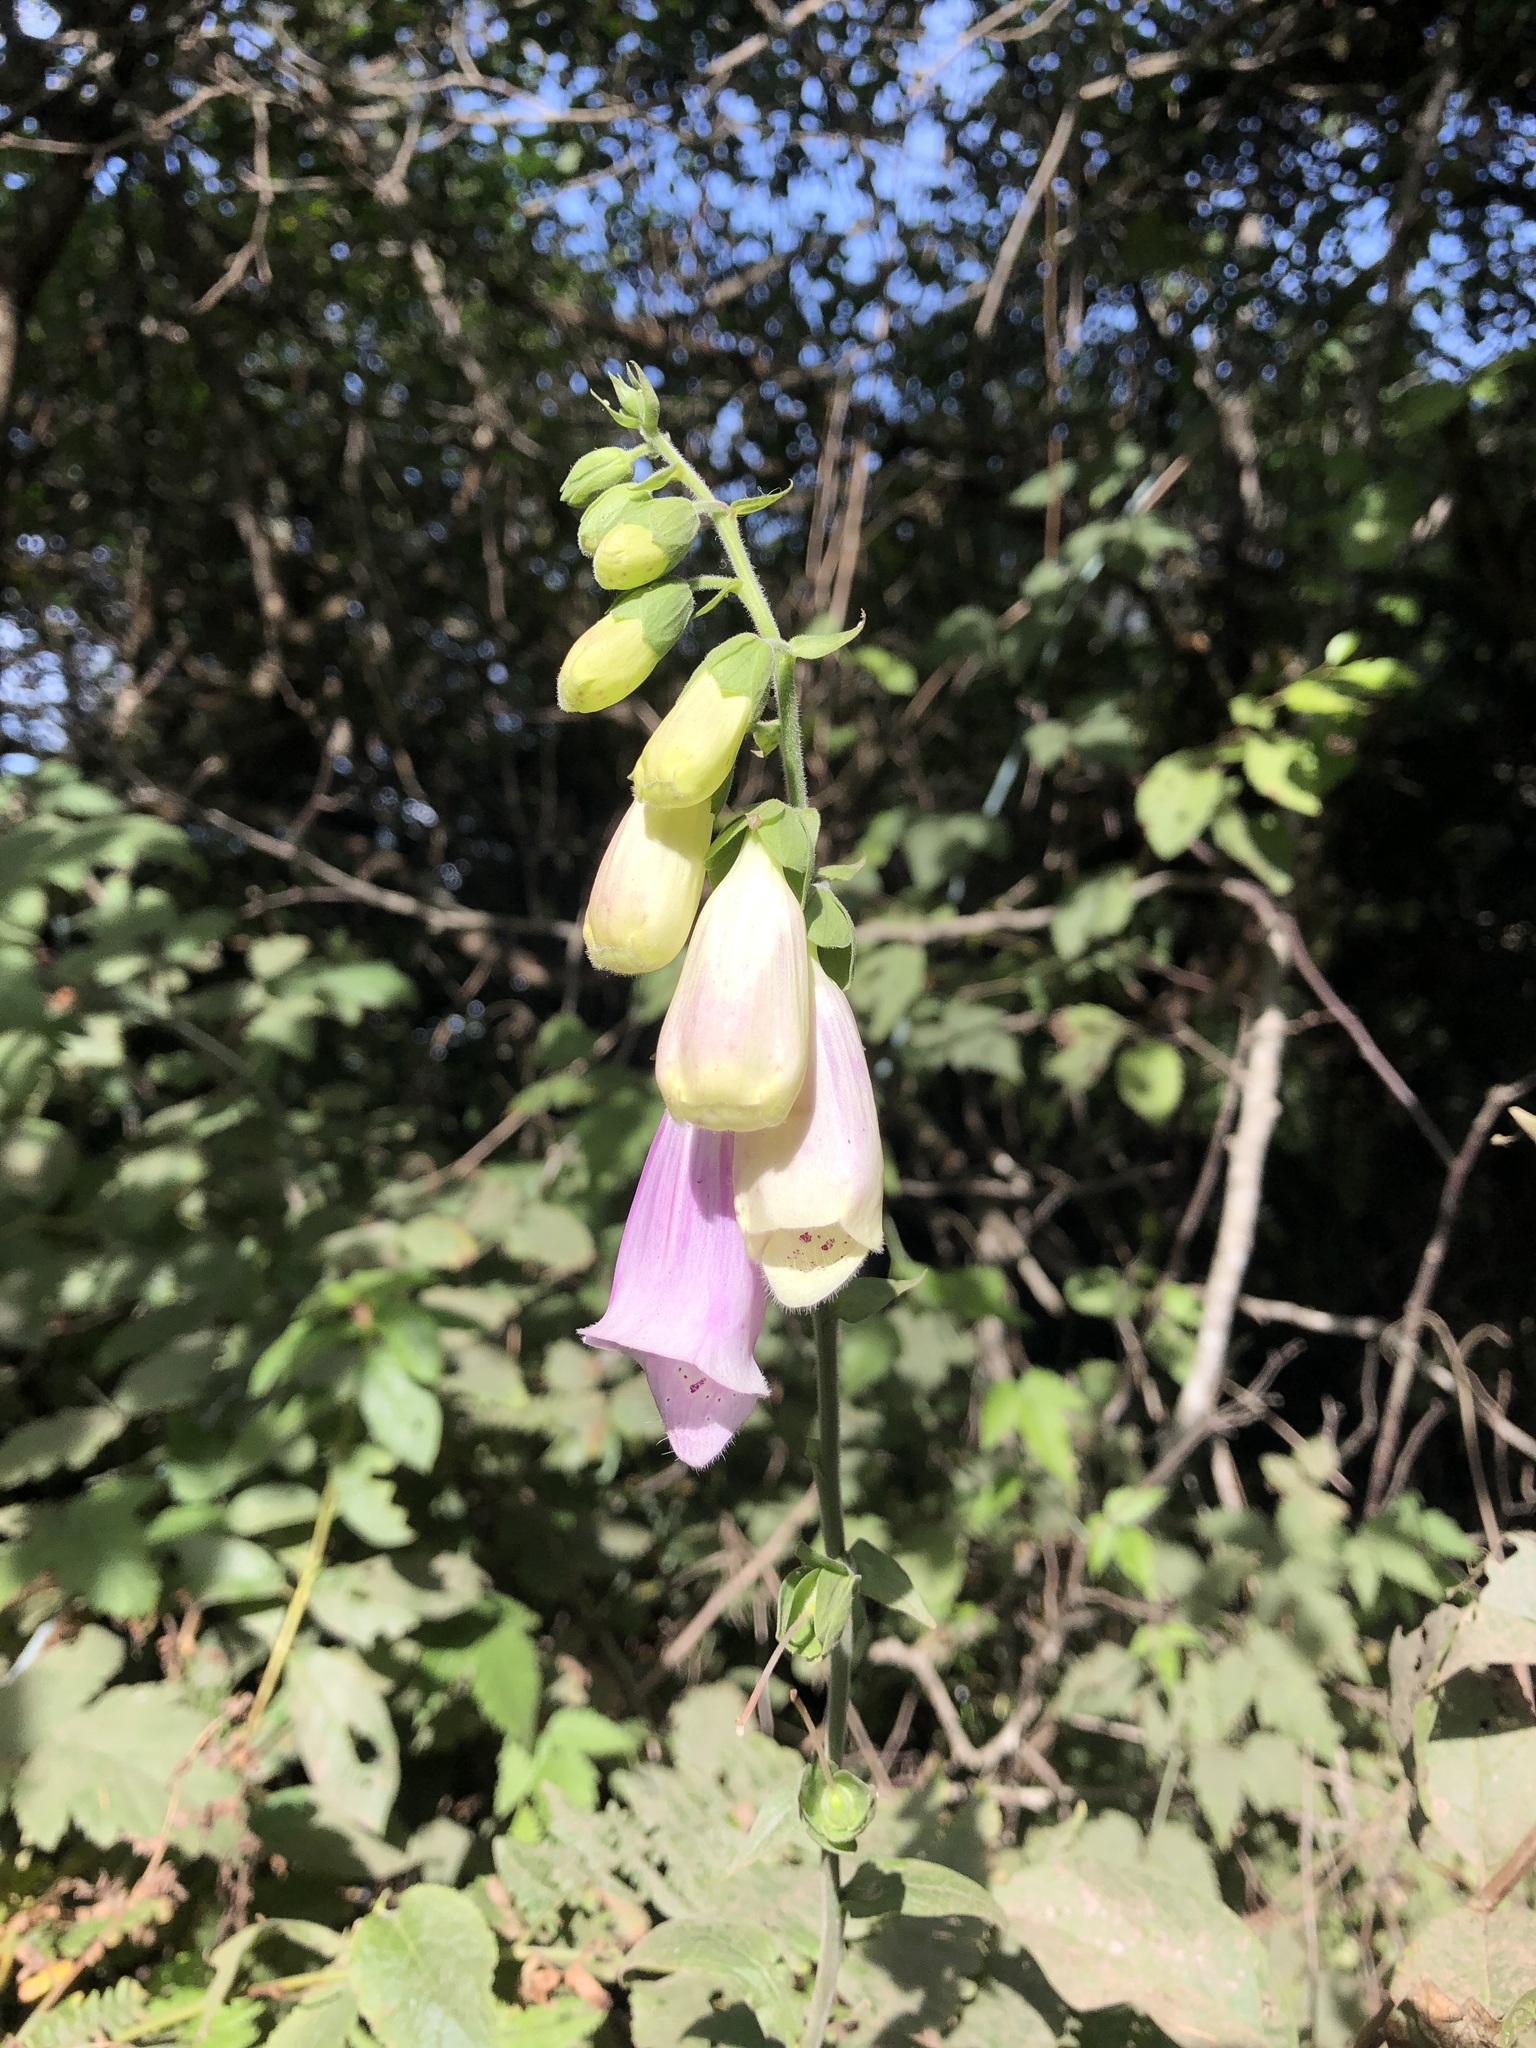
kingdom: Plantae
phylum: Tracheophyta
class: Magnoliopsida
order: Lamiales
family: Plantaginaceae
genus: Digitalis
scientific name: Digitalis purpurea
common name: Foxglove
